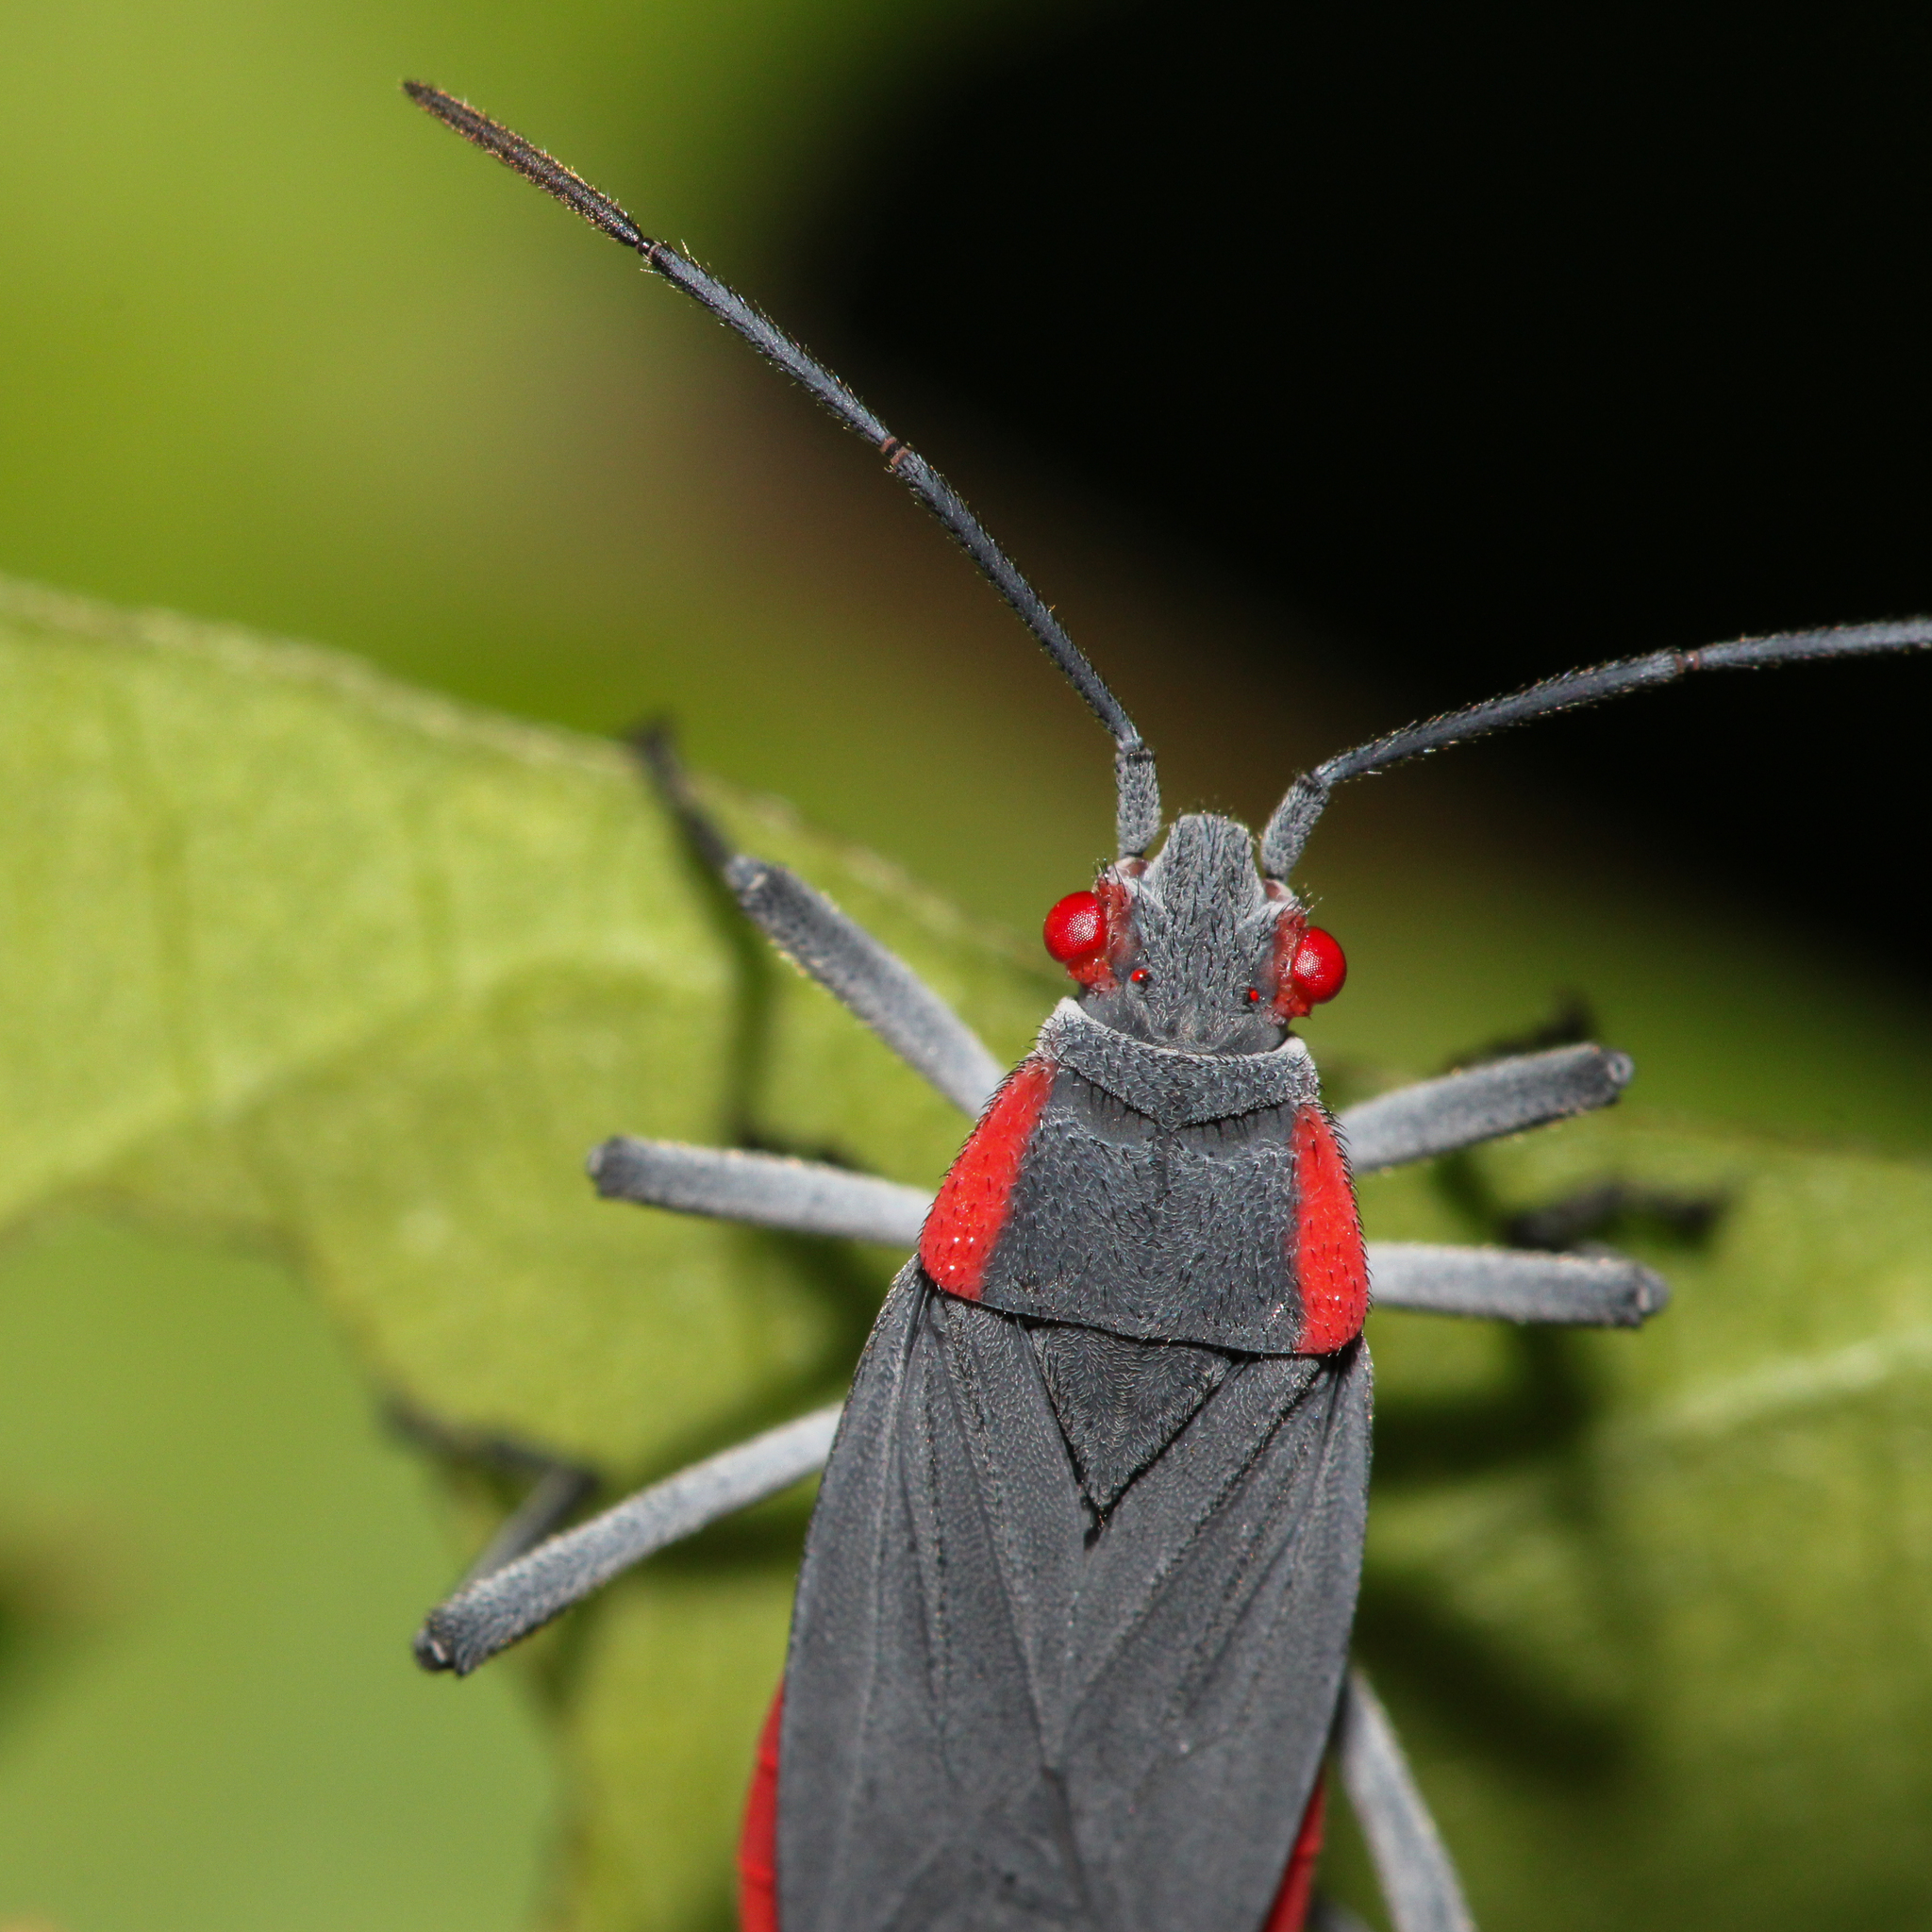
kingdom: Animalia
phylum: Arthropoda
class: Insecta
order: Hemiptera
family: Rhopalidae
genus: Jadera
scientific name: Jadera haematoloma
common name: Red-shouldered bug
